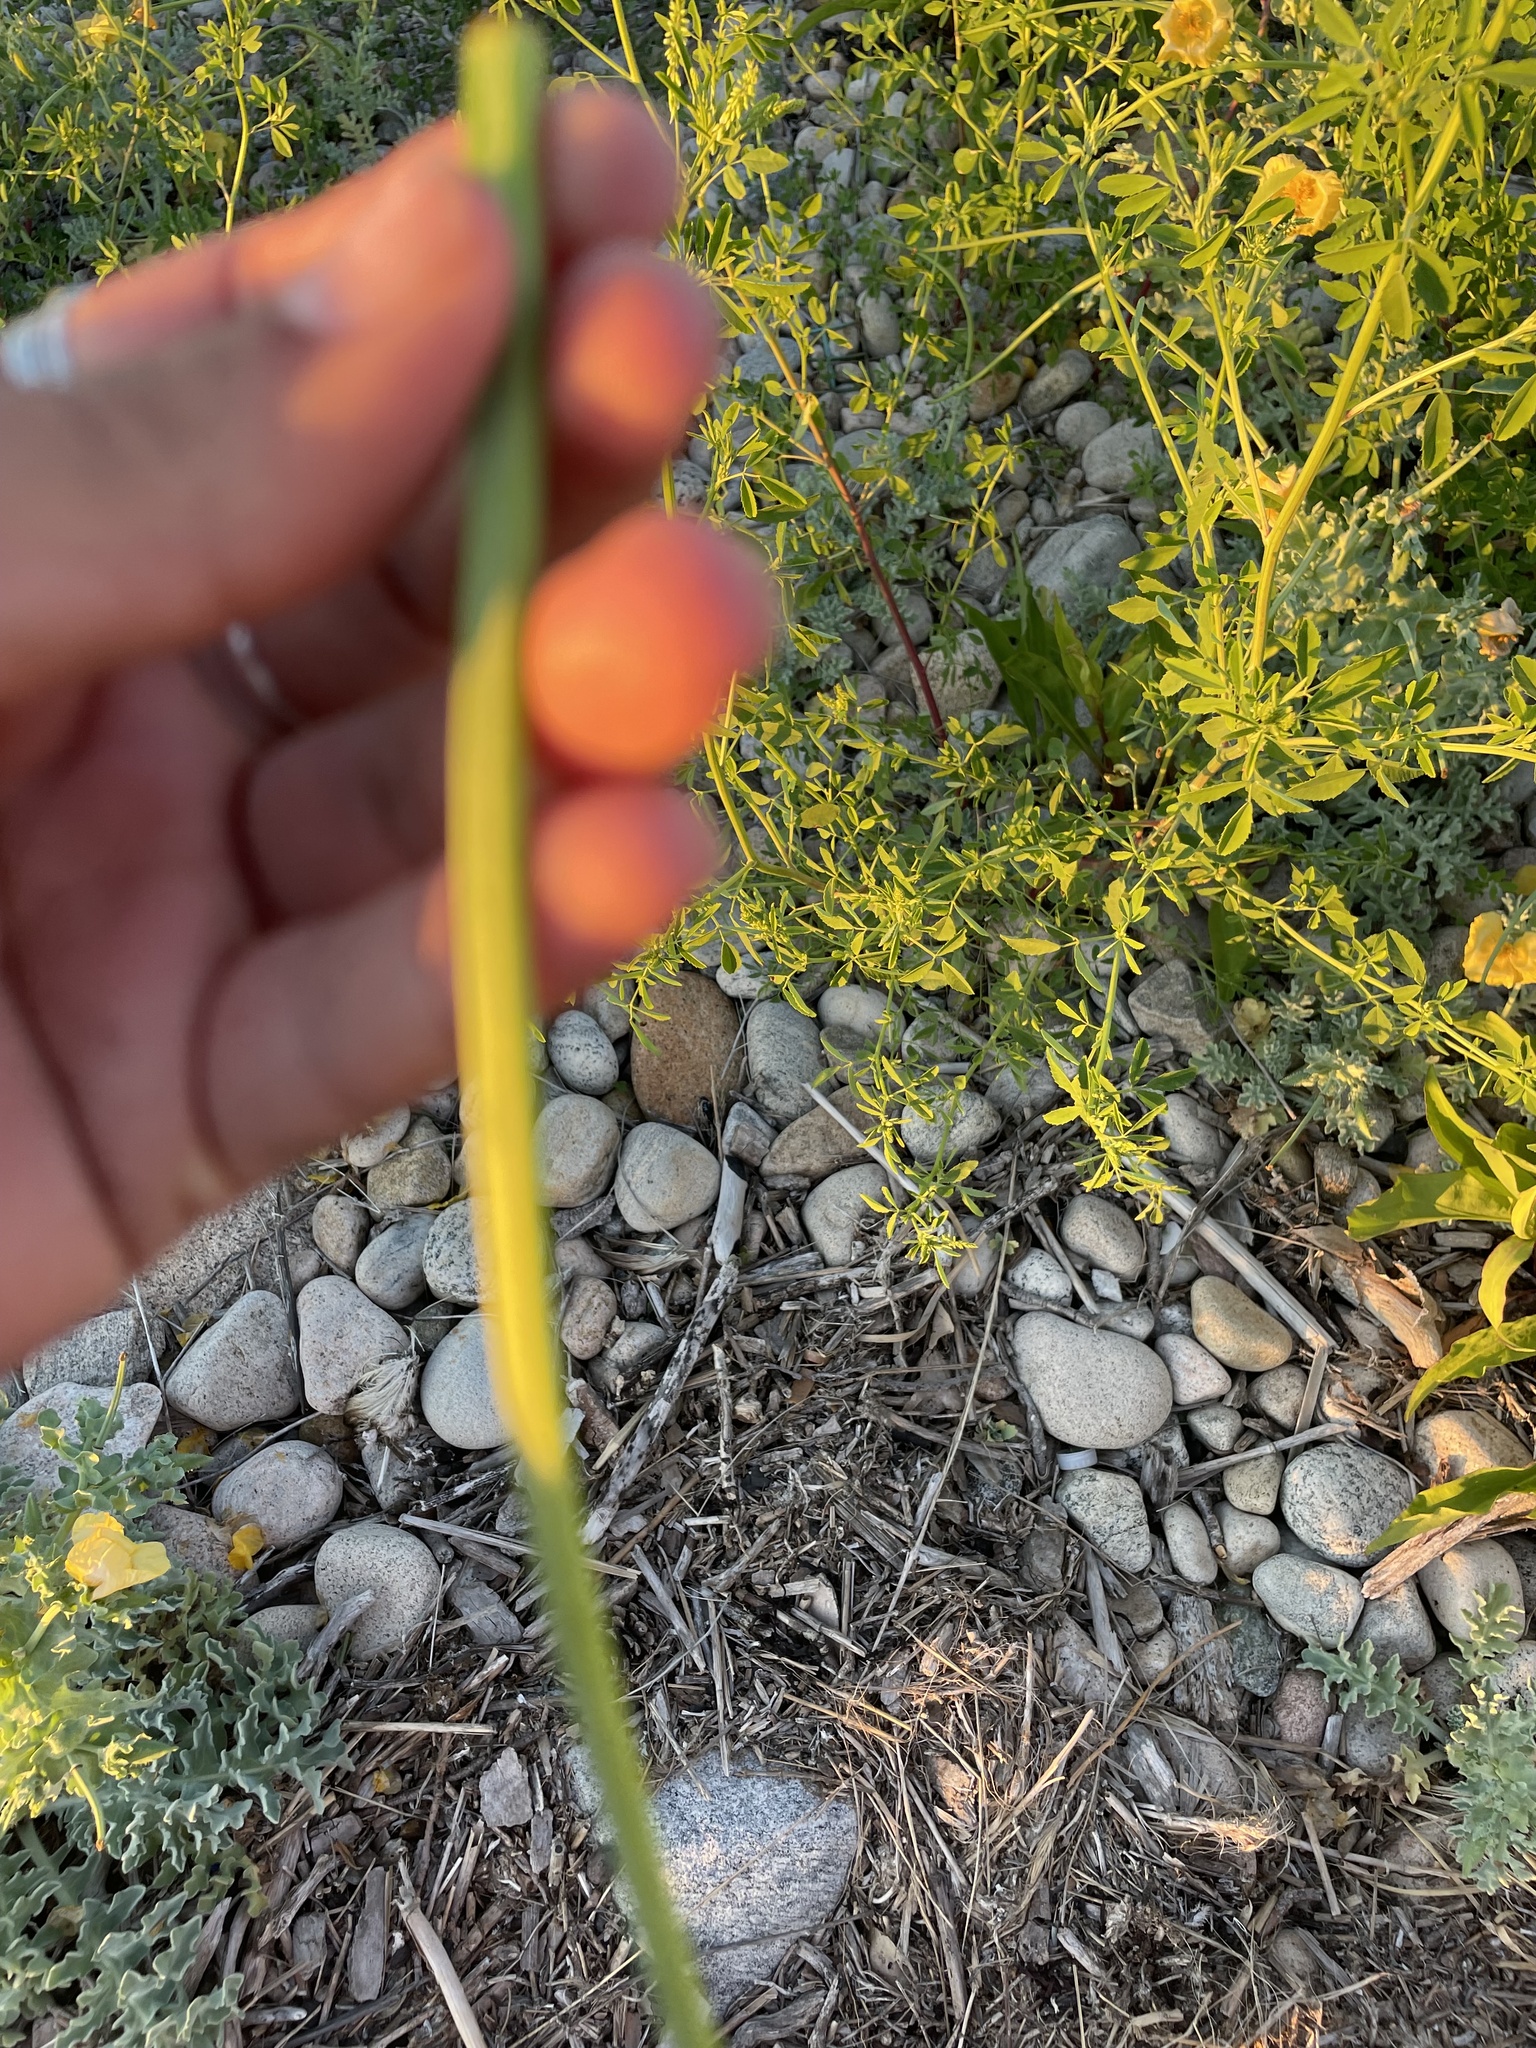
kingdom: Plantae
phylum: Tracheophyta
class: Magnoliopsida
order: Ranunculales
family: Papaveraceae
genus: Glaucium
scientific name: Glaucium flavum
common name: Yellow horned-poppy
